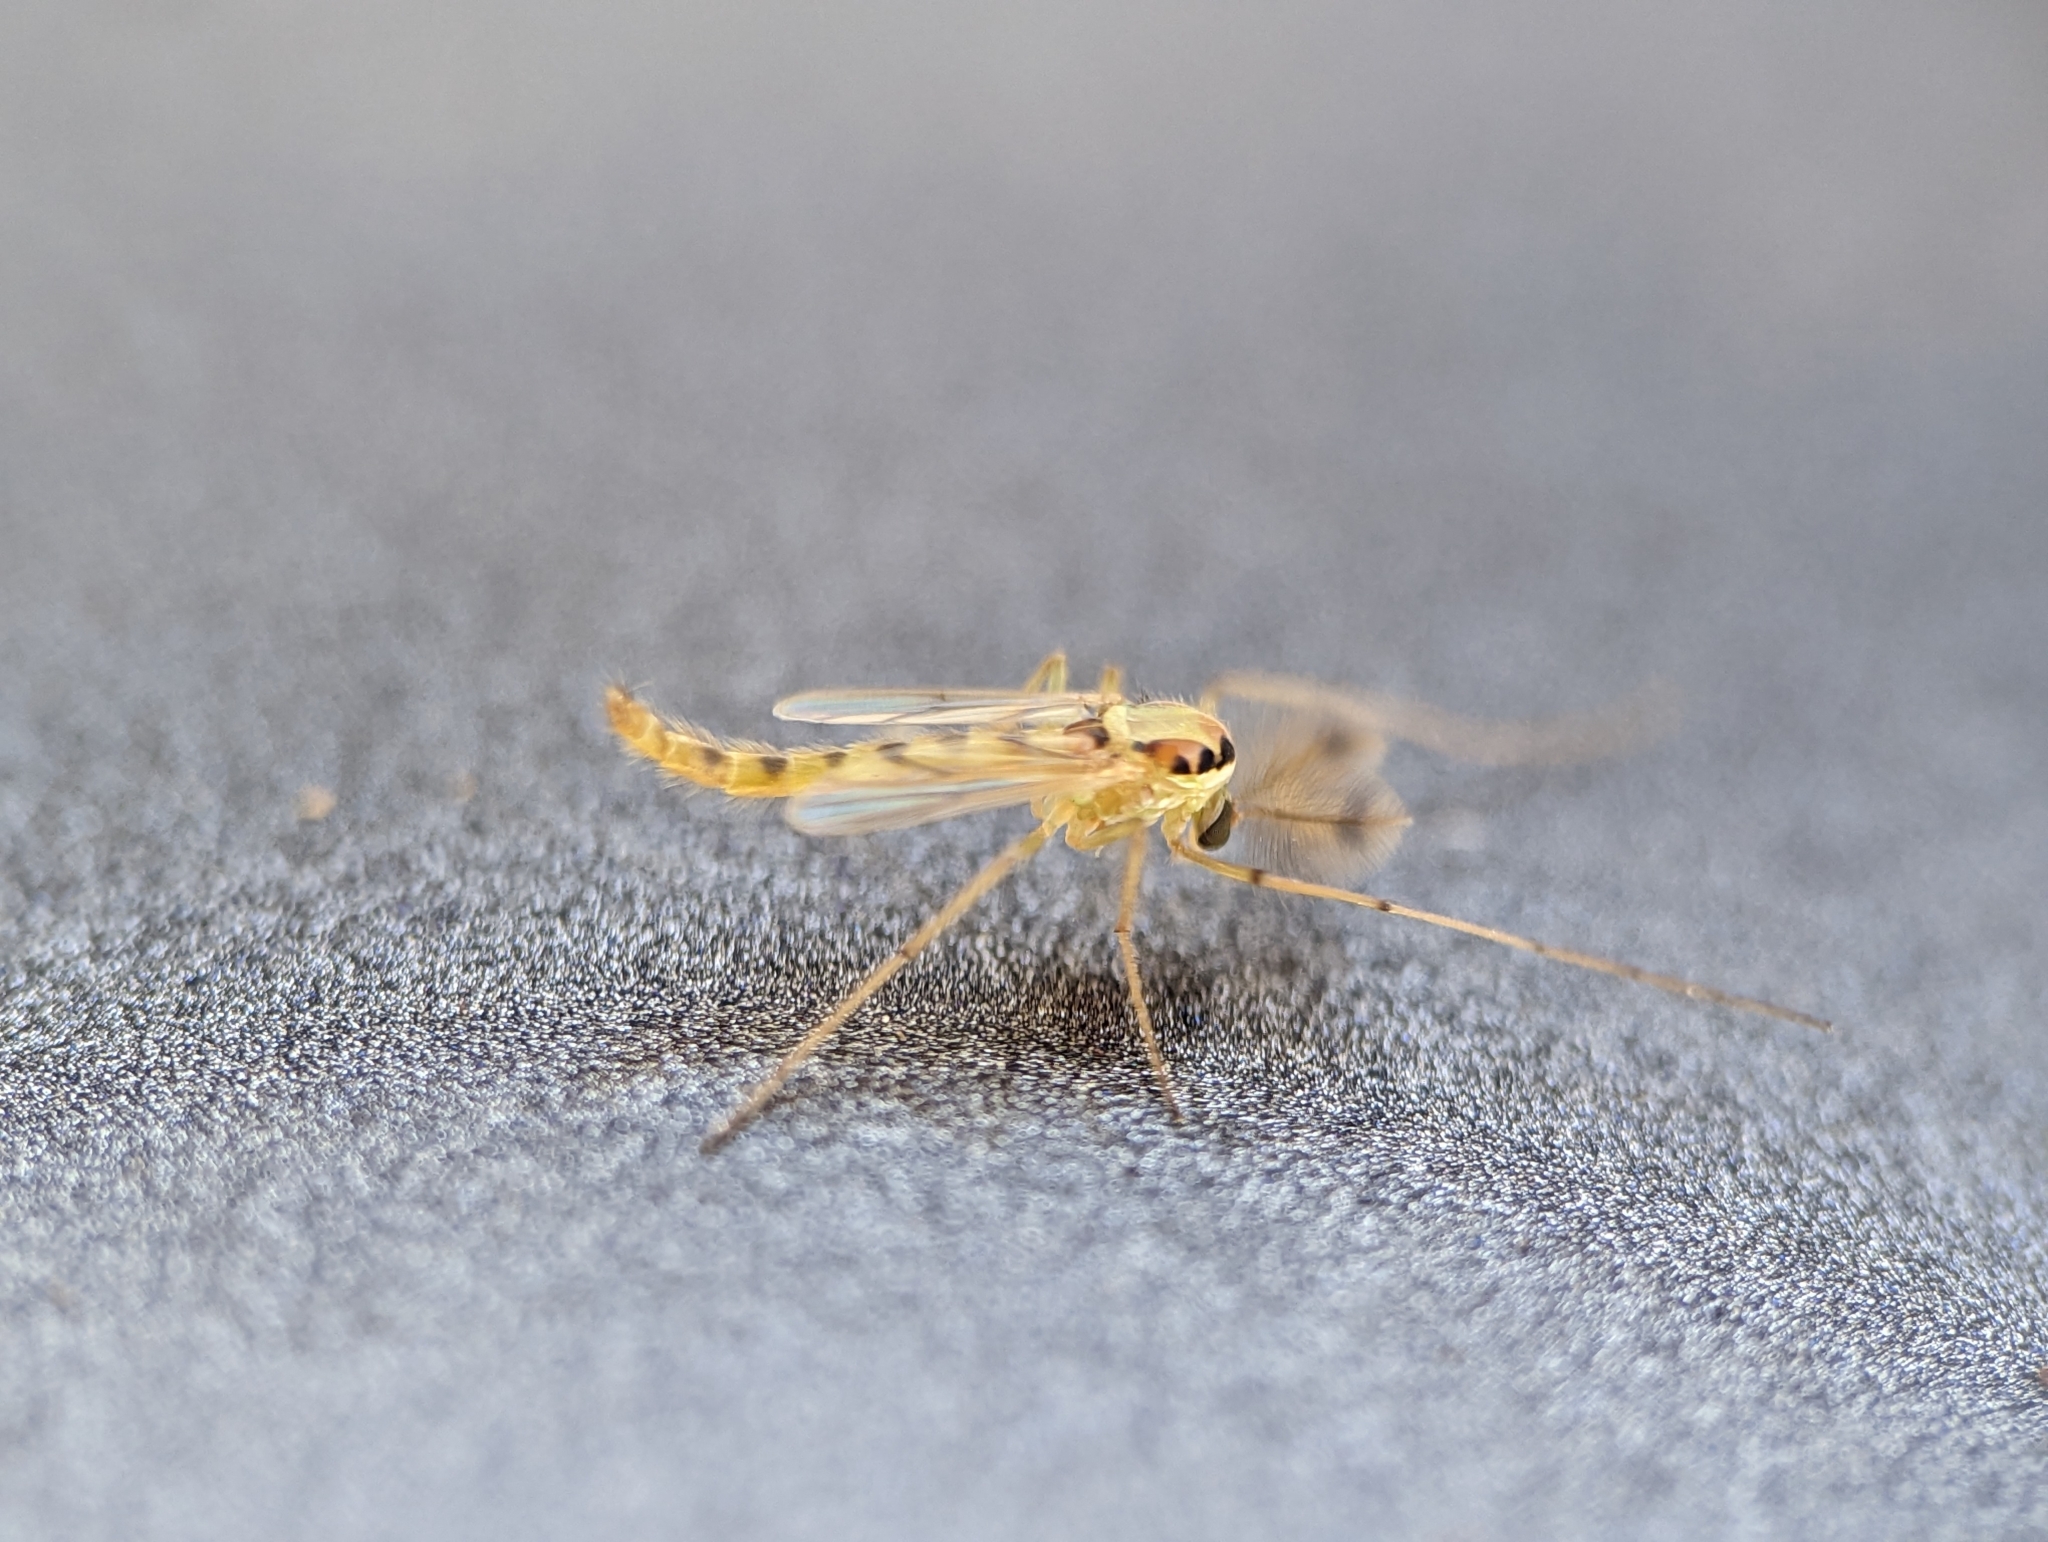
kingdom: Animalia
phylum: Arthropoda
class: Insecta
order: Diptera
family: Chironomidae
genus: Goeldichironomus
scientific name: Goeldichironomus carus
